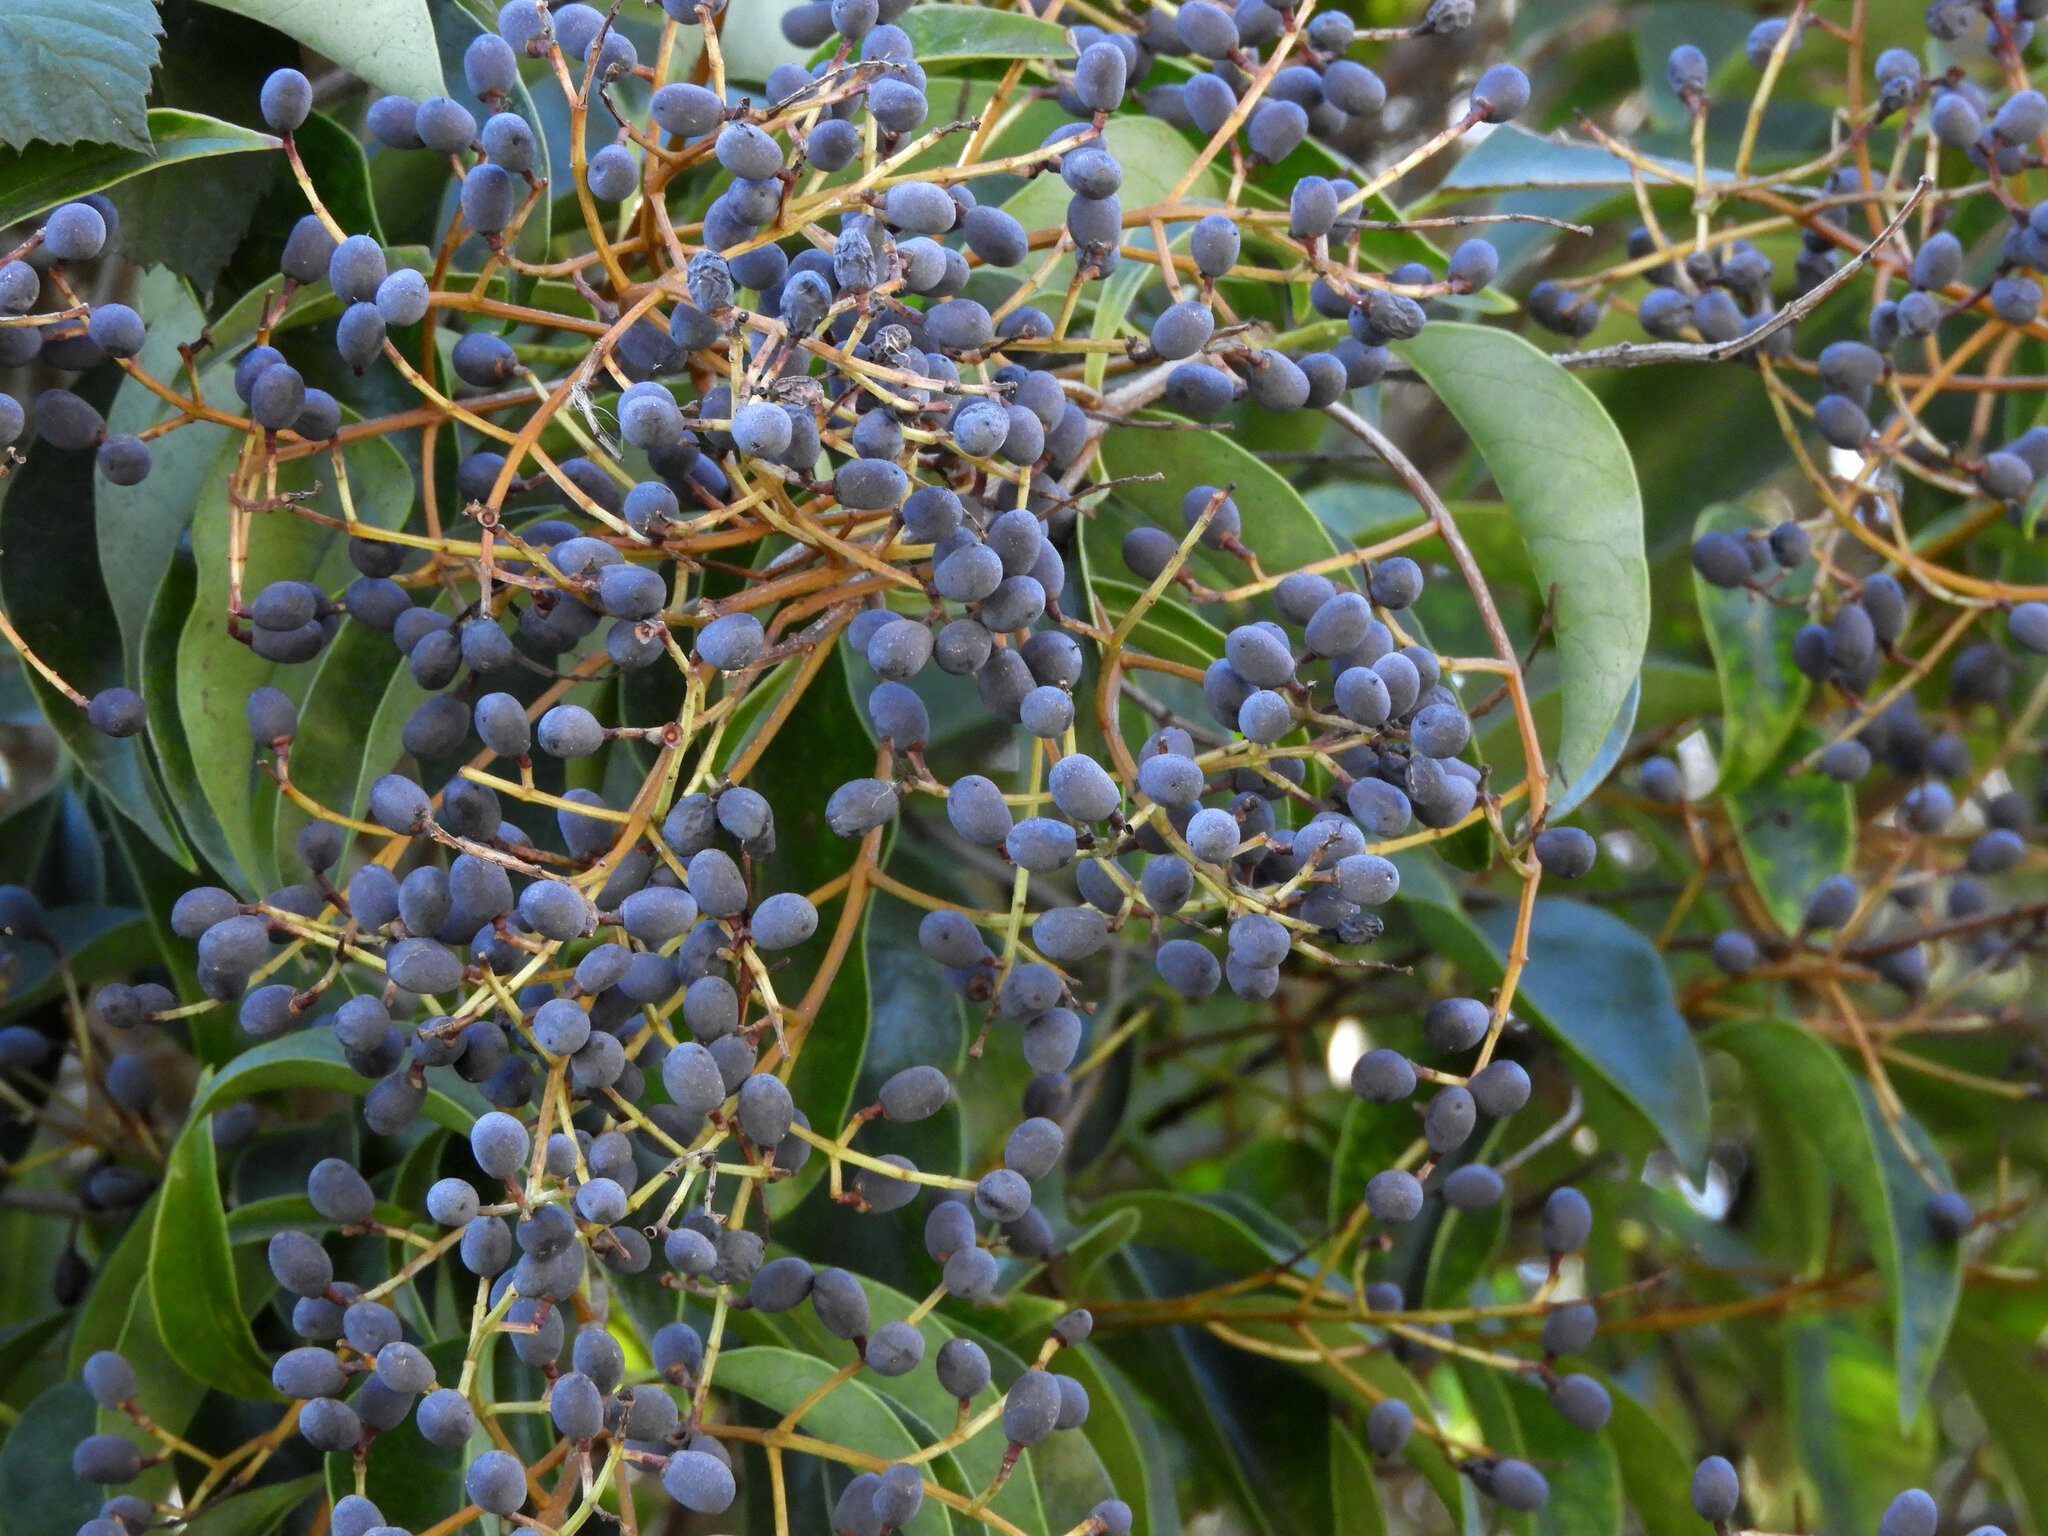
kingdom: Plantae
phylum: Tracheophyta
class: Magnoliopsida
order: Lamiales
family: Oleaceae
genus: Ligustrum
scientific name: Ligustrum lucidum
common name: Glossy privet
